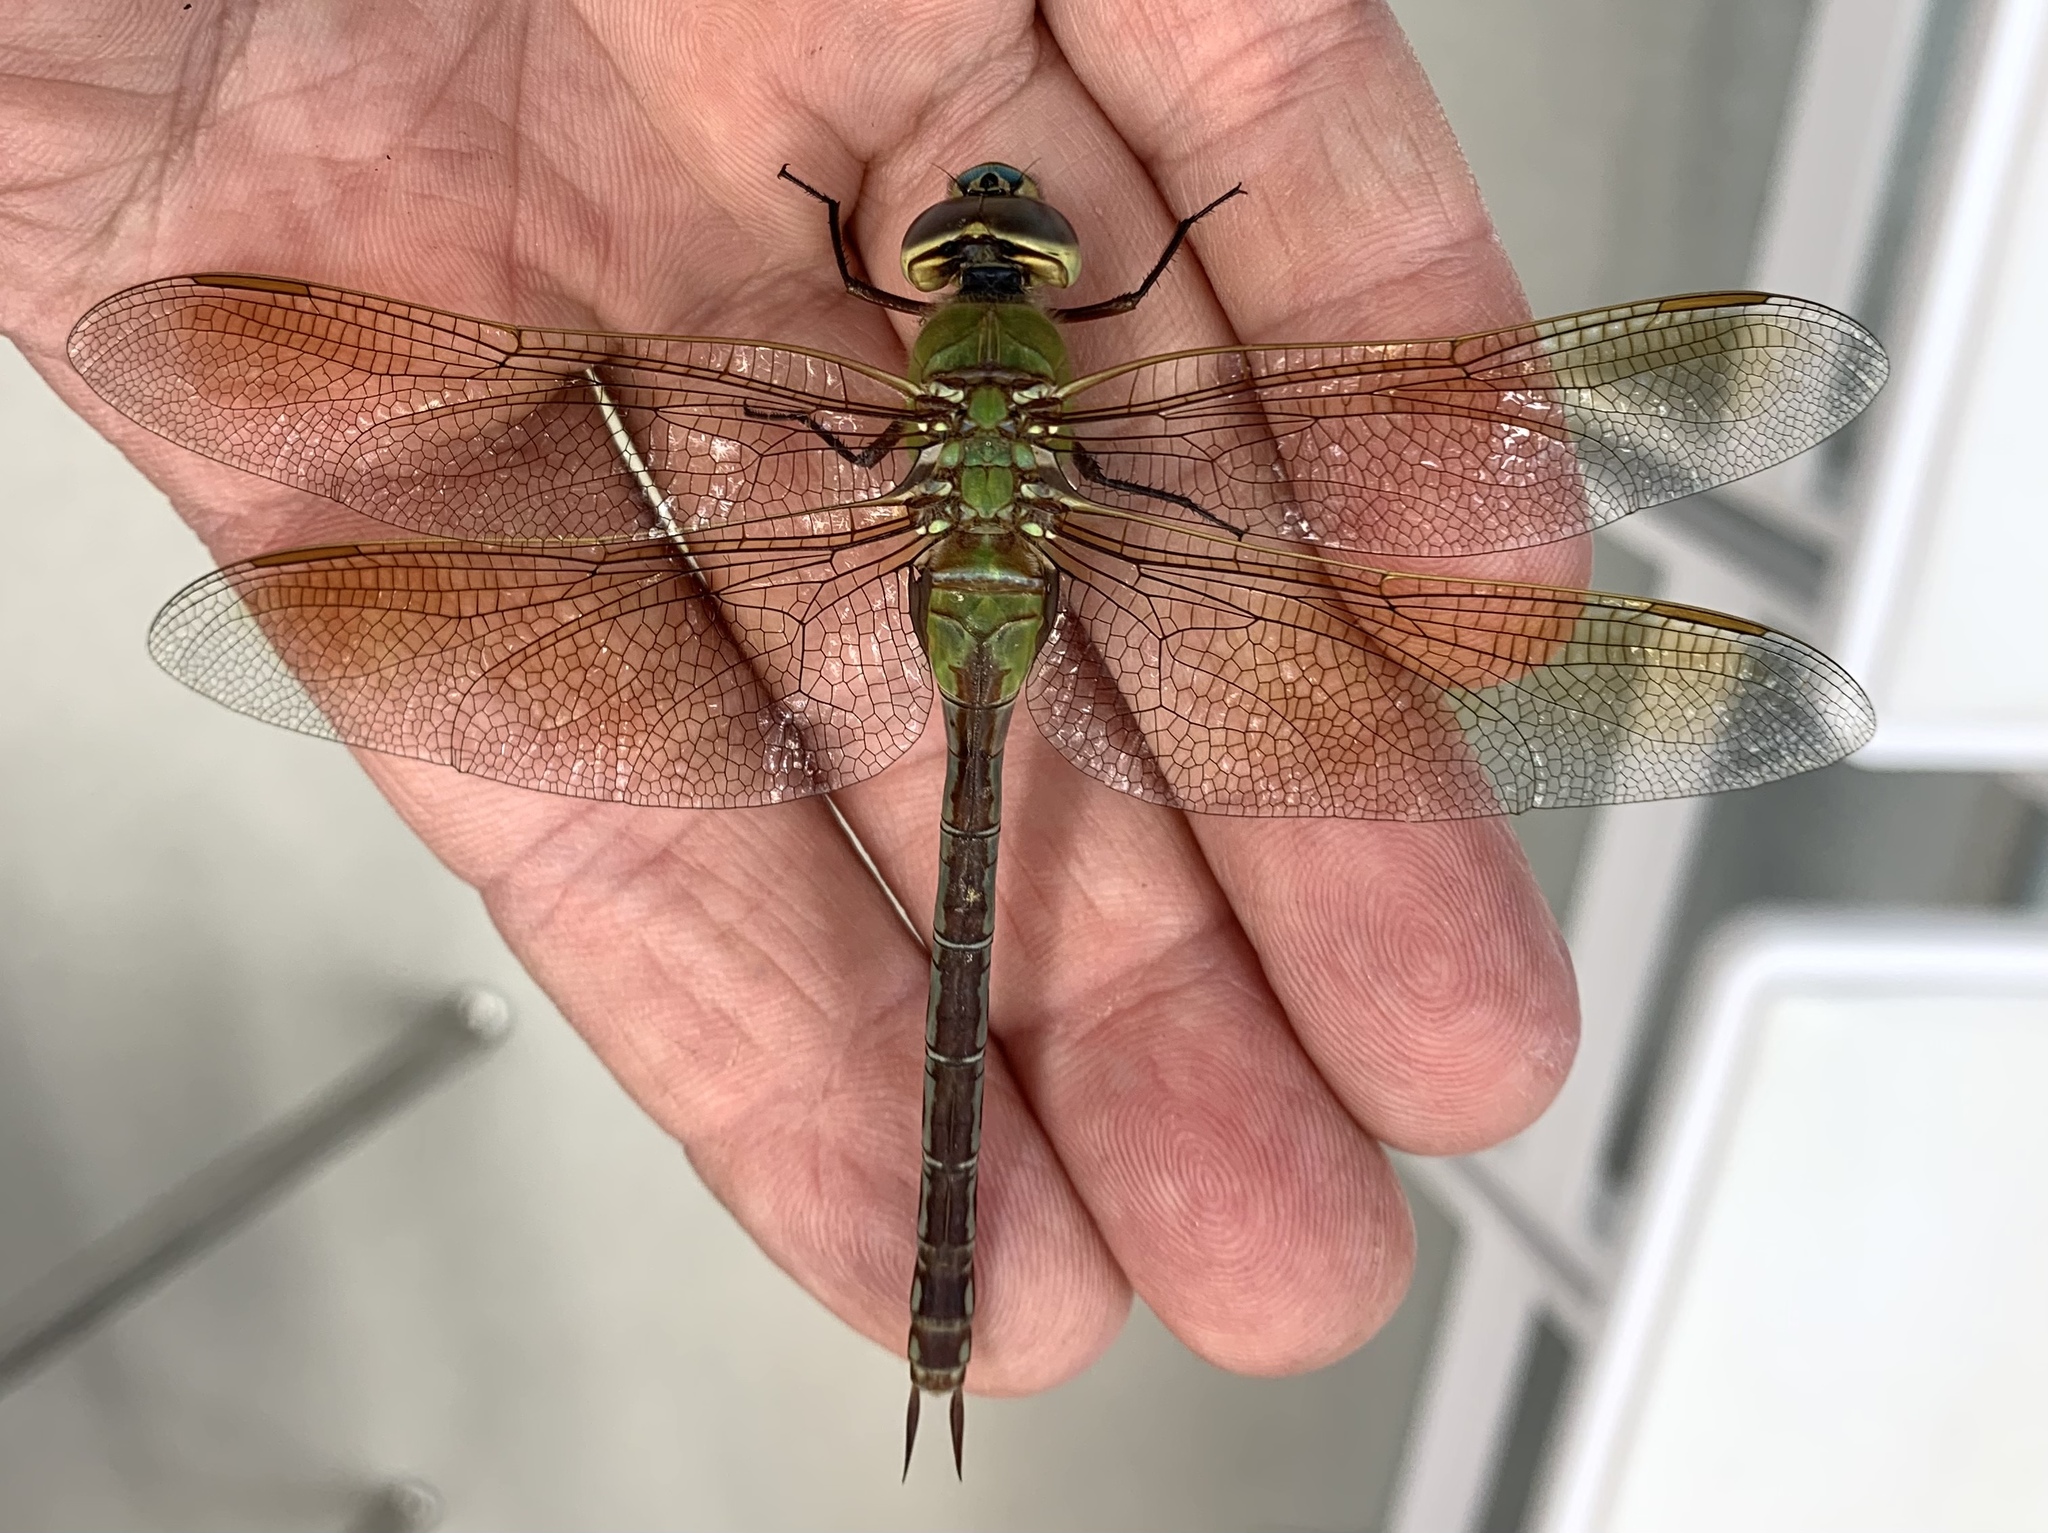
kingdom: Animalia
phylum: Arthropoda
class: Insecta
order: Odonata
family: Aeshnidae
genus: Anax
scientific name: Anax junius
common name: Common green darner
